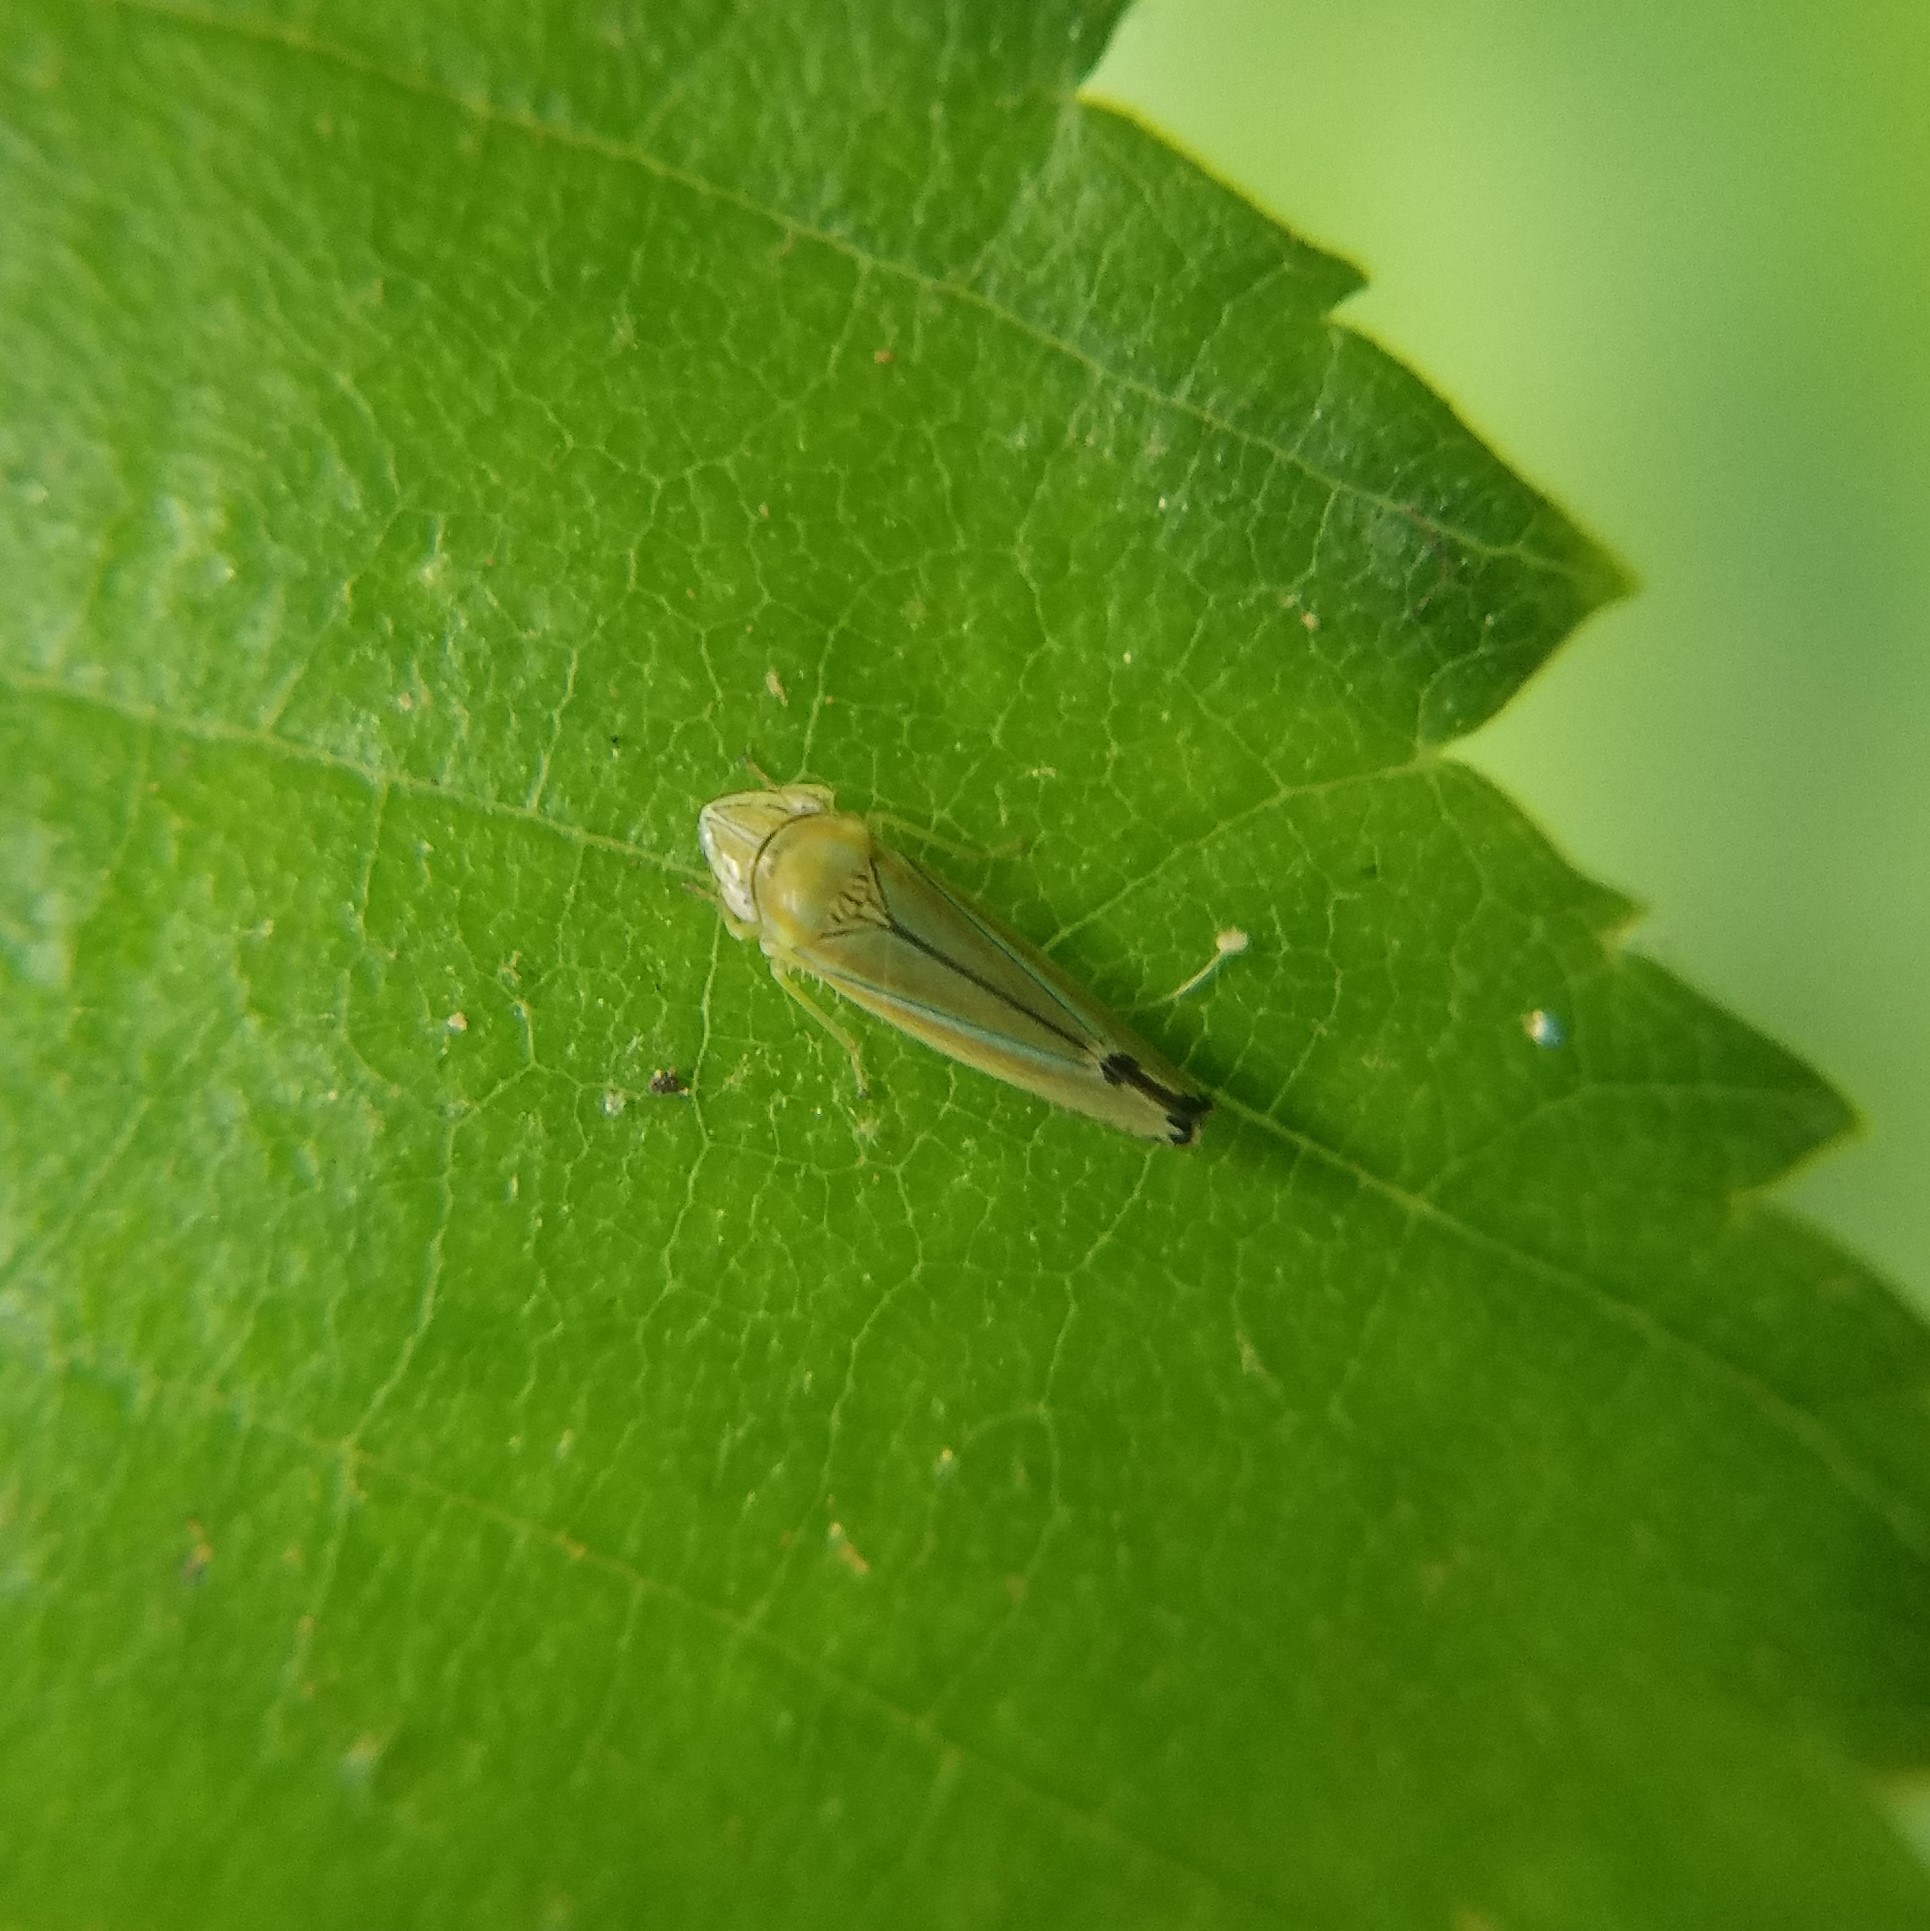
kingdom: Animalia
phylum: Arthropoda
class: Insecta
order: Hemiptera
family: Cicadellidae
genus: Graphocephala
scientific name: Graphocephala versuta
